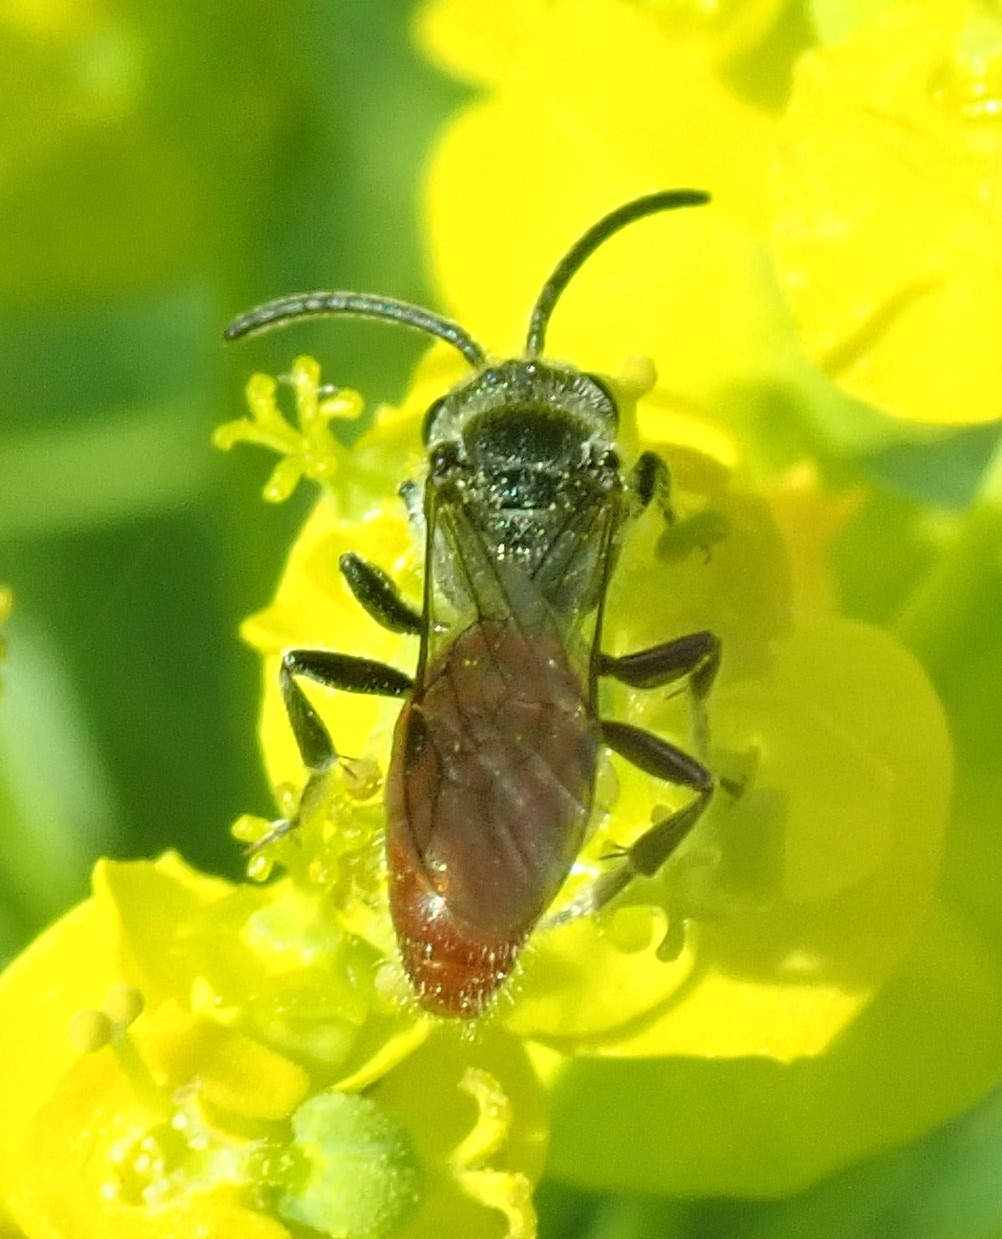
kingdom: Animalia
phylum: Arthropoda
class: Insecta
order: Hymenoptera
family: Halictidae
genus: Sphecodes
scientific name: Sphecodes ranunculi
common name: Buttercup cuckoo sweat bee
